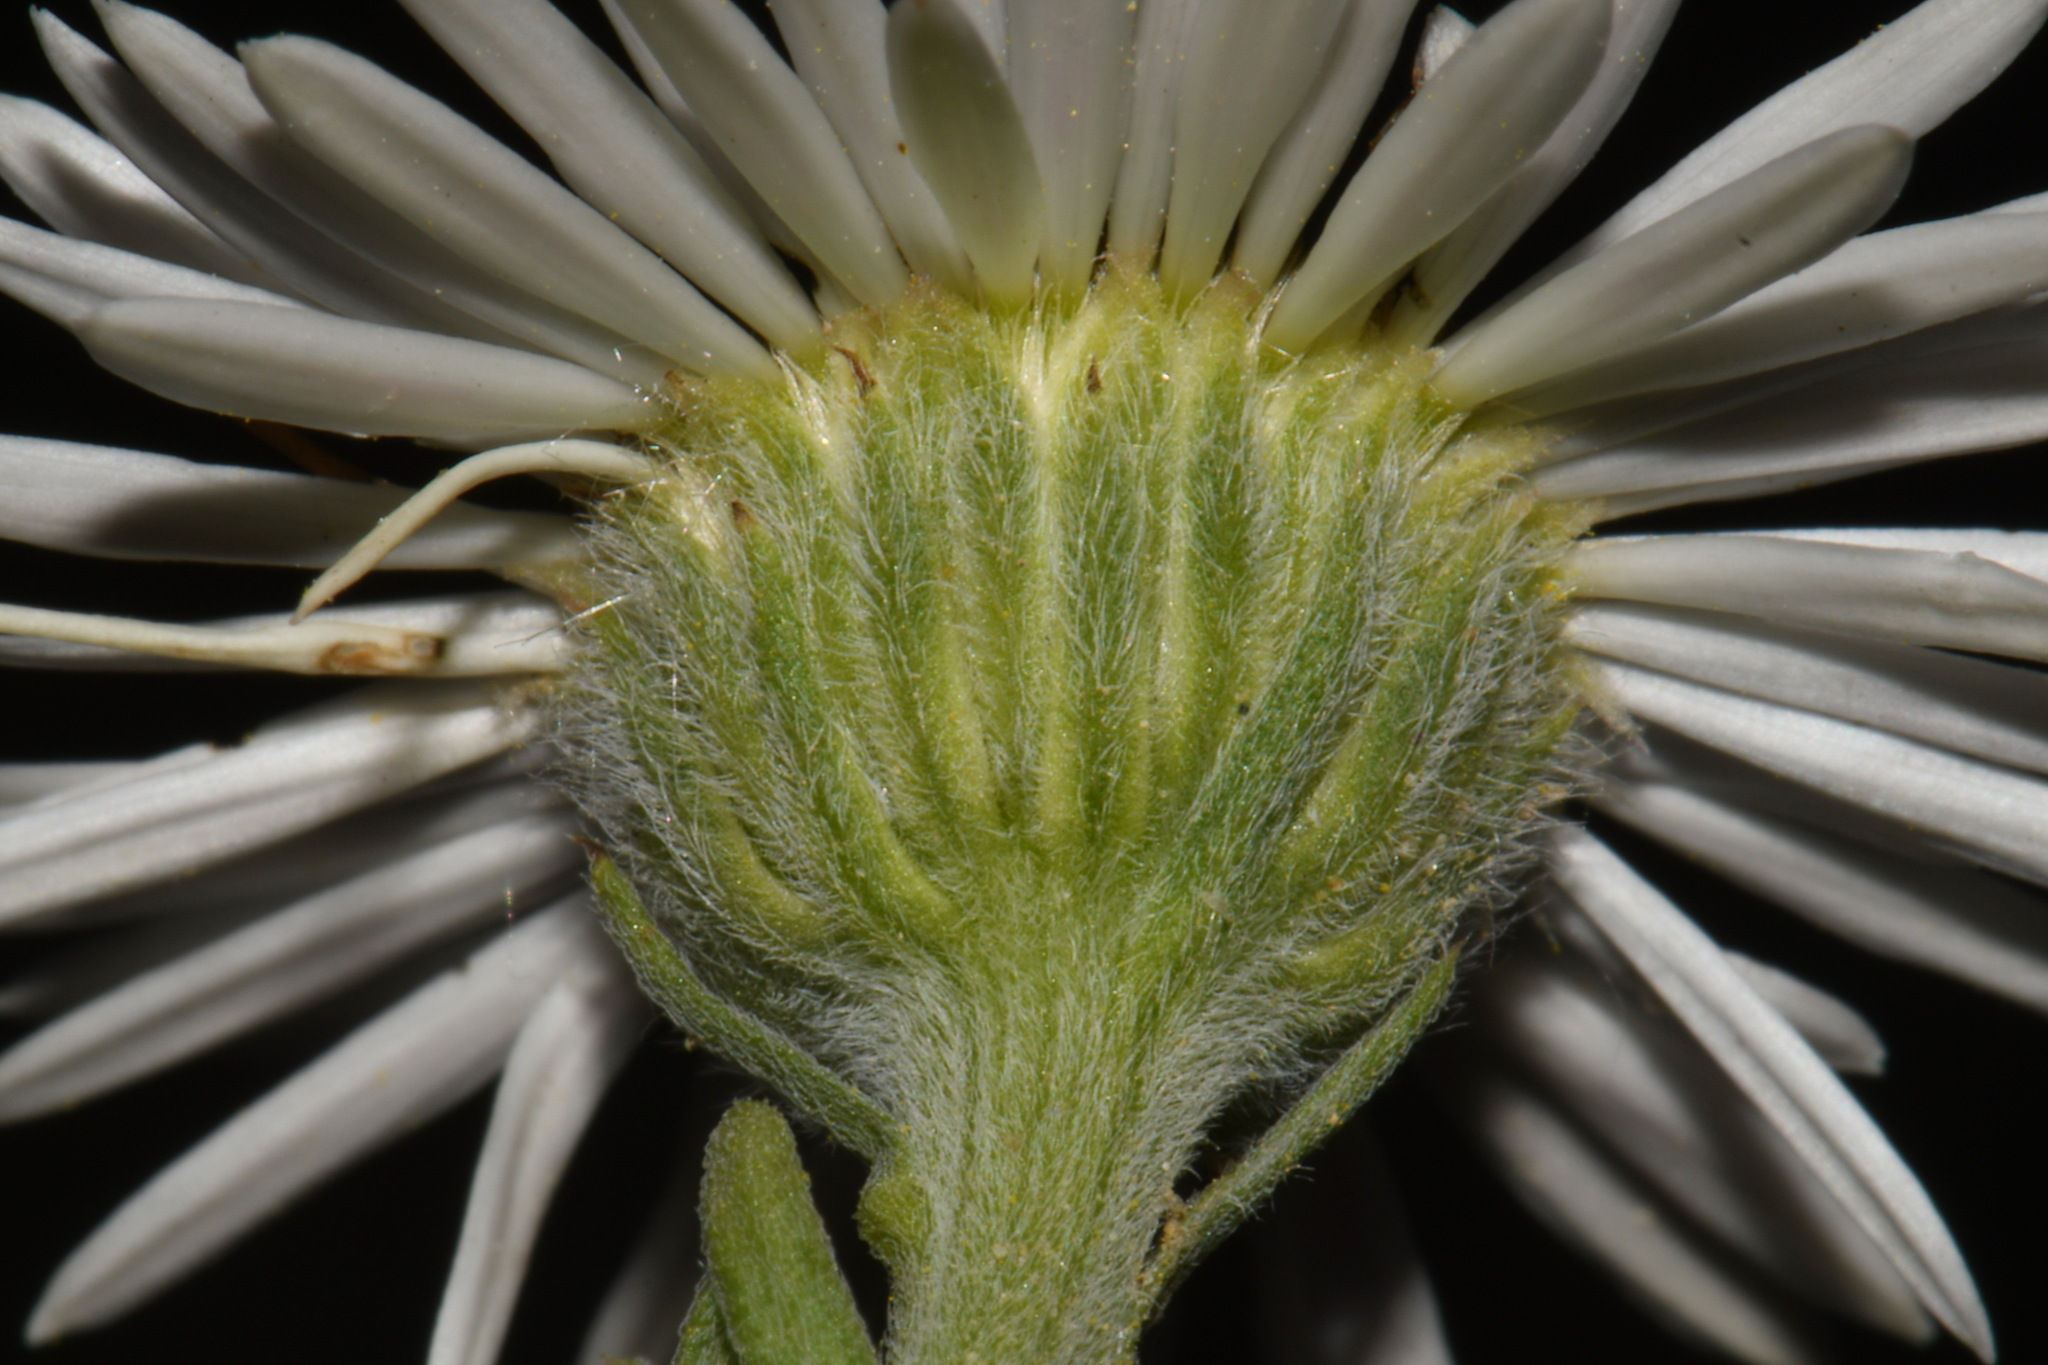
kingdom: Plantae
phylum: Tracheophyta
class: Magnoliopsida
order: Asterales
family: Asteraceae
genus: Erigeron
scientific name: Erigeron caespitosus
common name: Tufted fleabane
